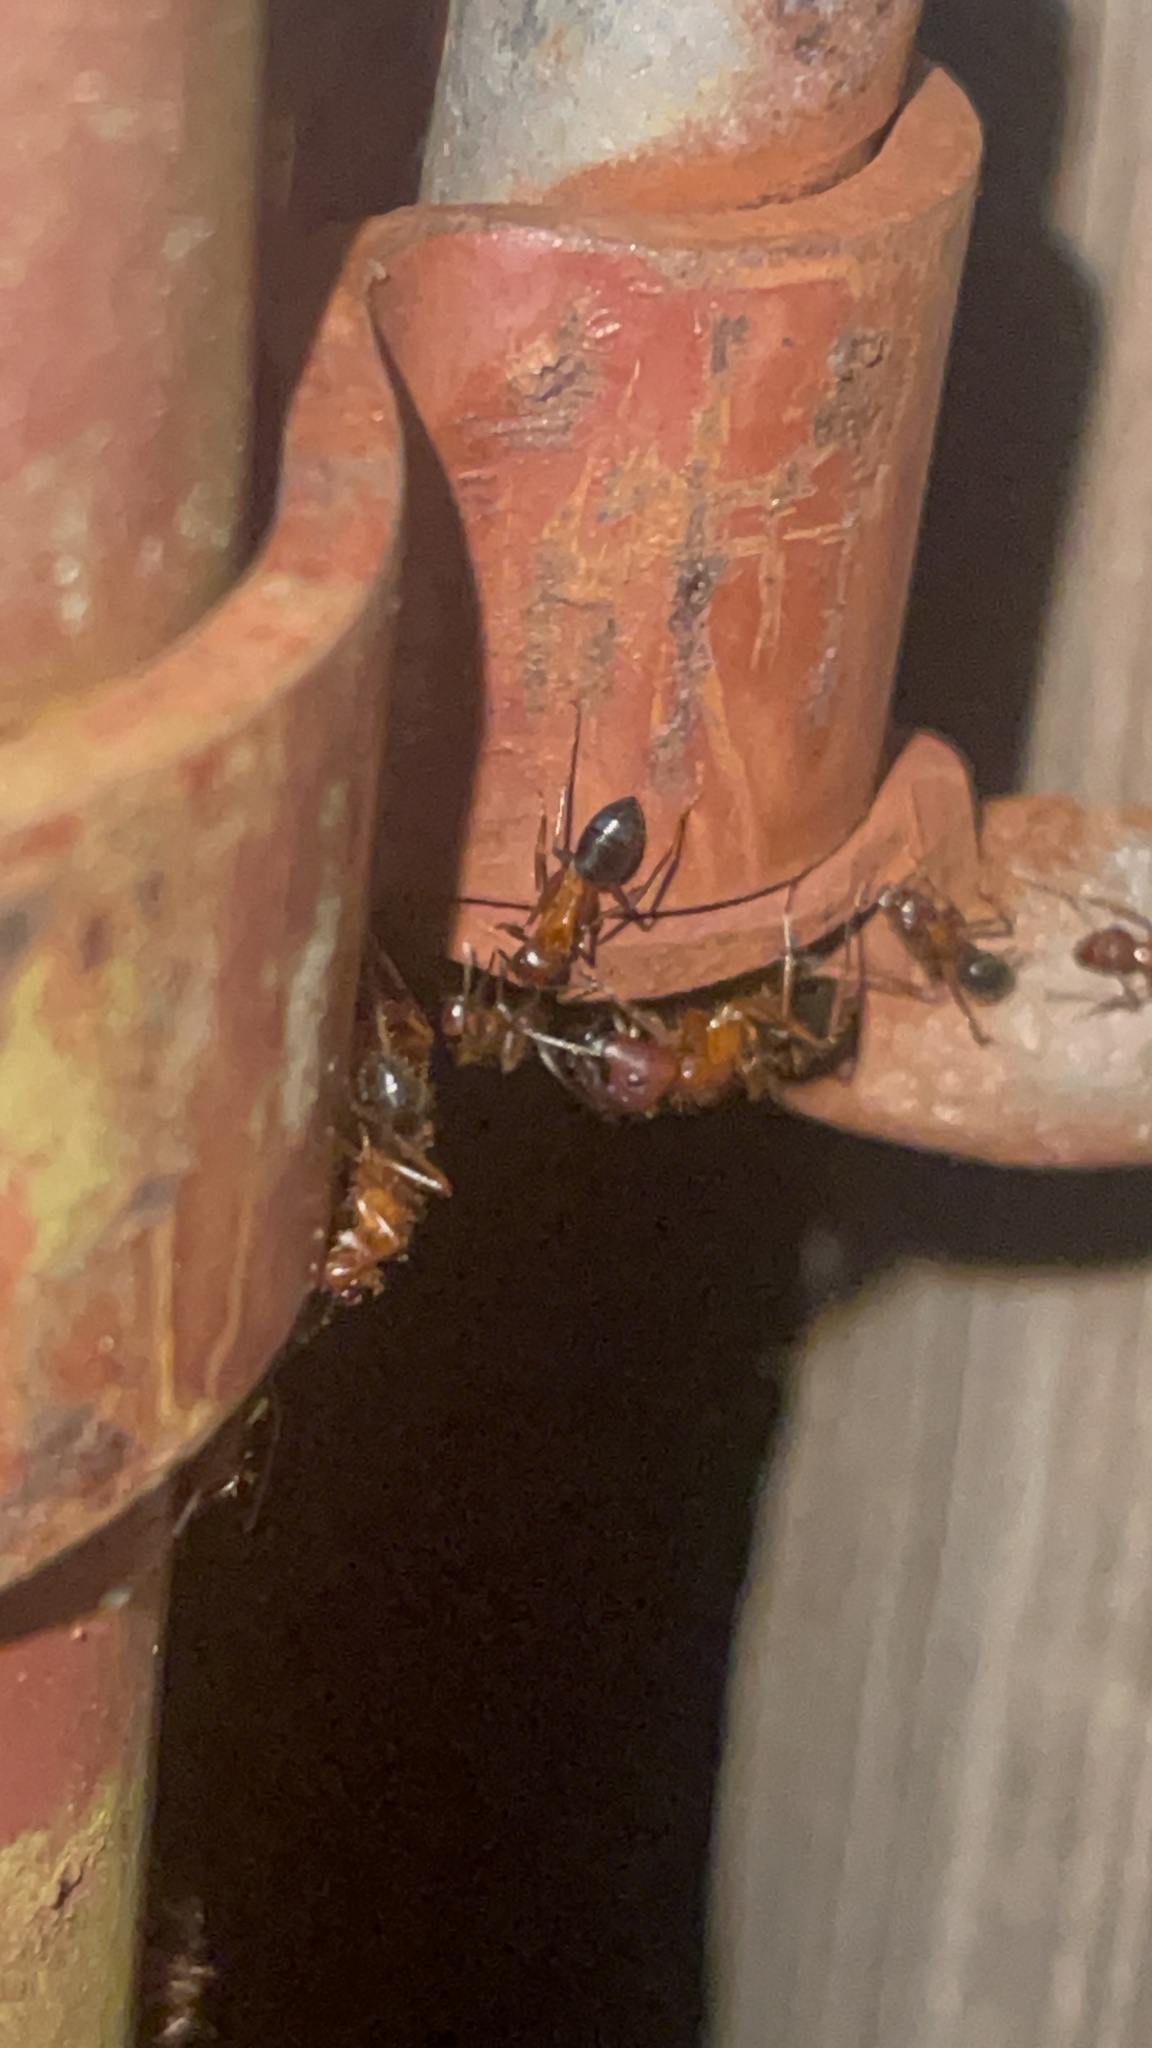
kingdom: Animalia
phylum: Arthropoda
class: Insecta
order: Hymenoptera
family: Formicidae
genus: Camponotus
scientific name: Camponotus floridanus
